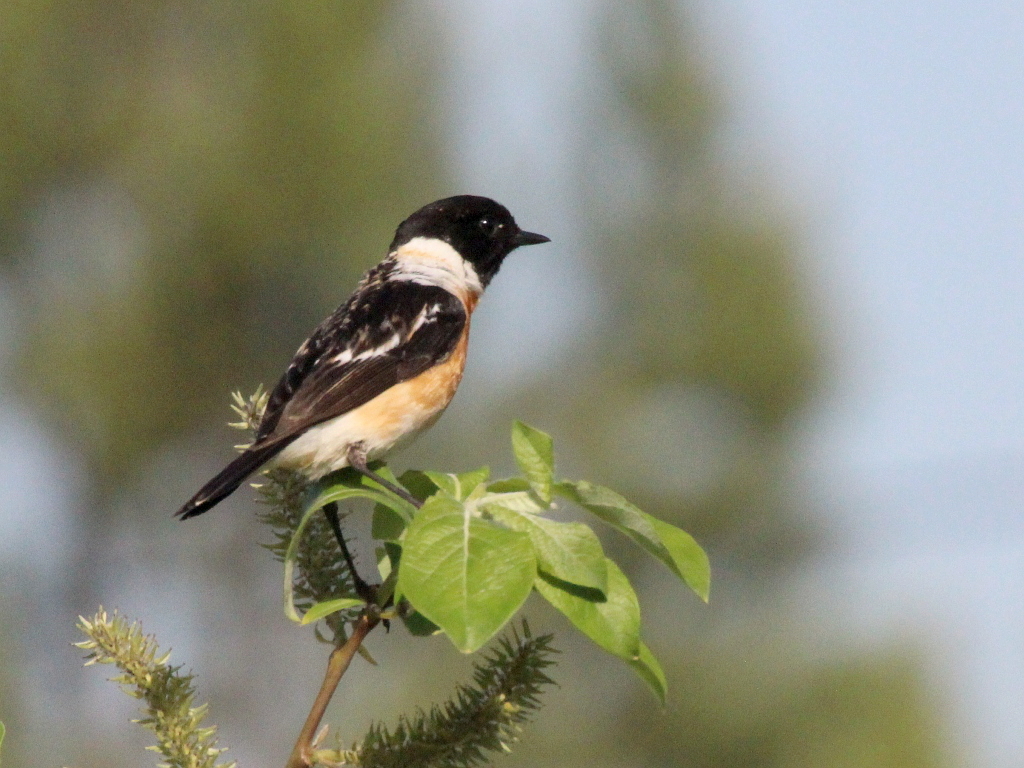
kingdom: Animalia
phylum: Chordata
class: Aves
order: Passeriformes
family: Muscicapidae
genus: Saxicola
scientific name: Saxicola maurus
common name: Siberian stonechat
